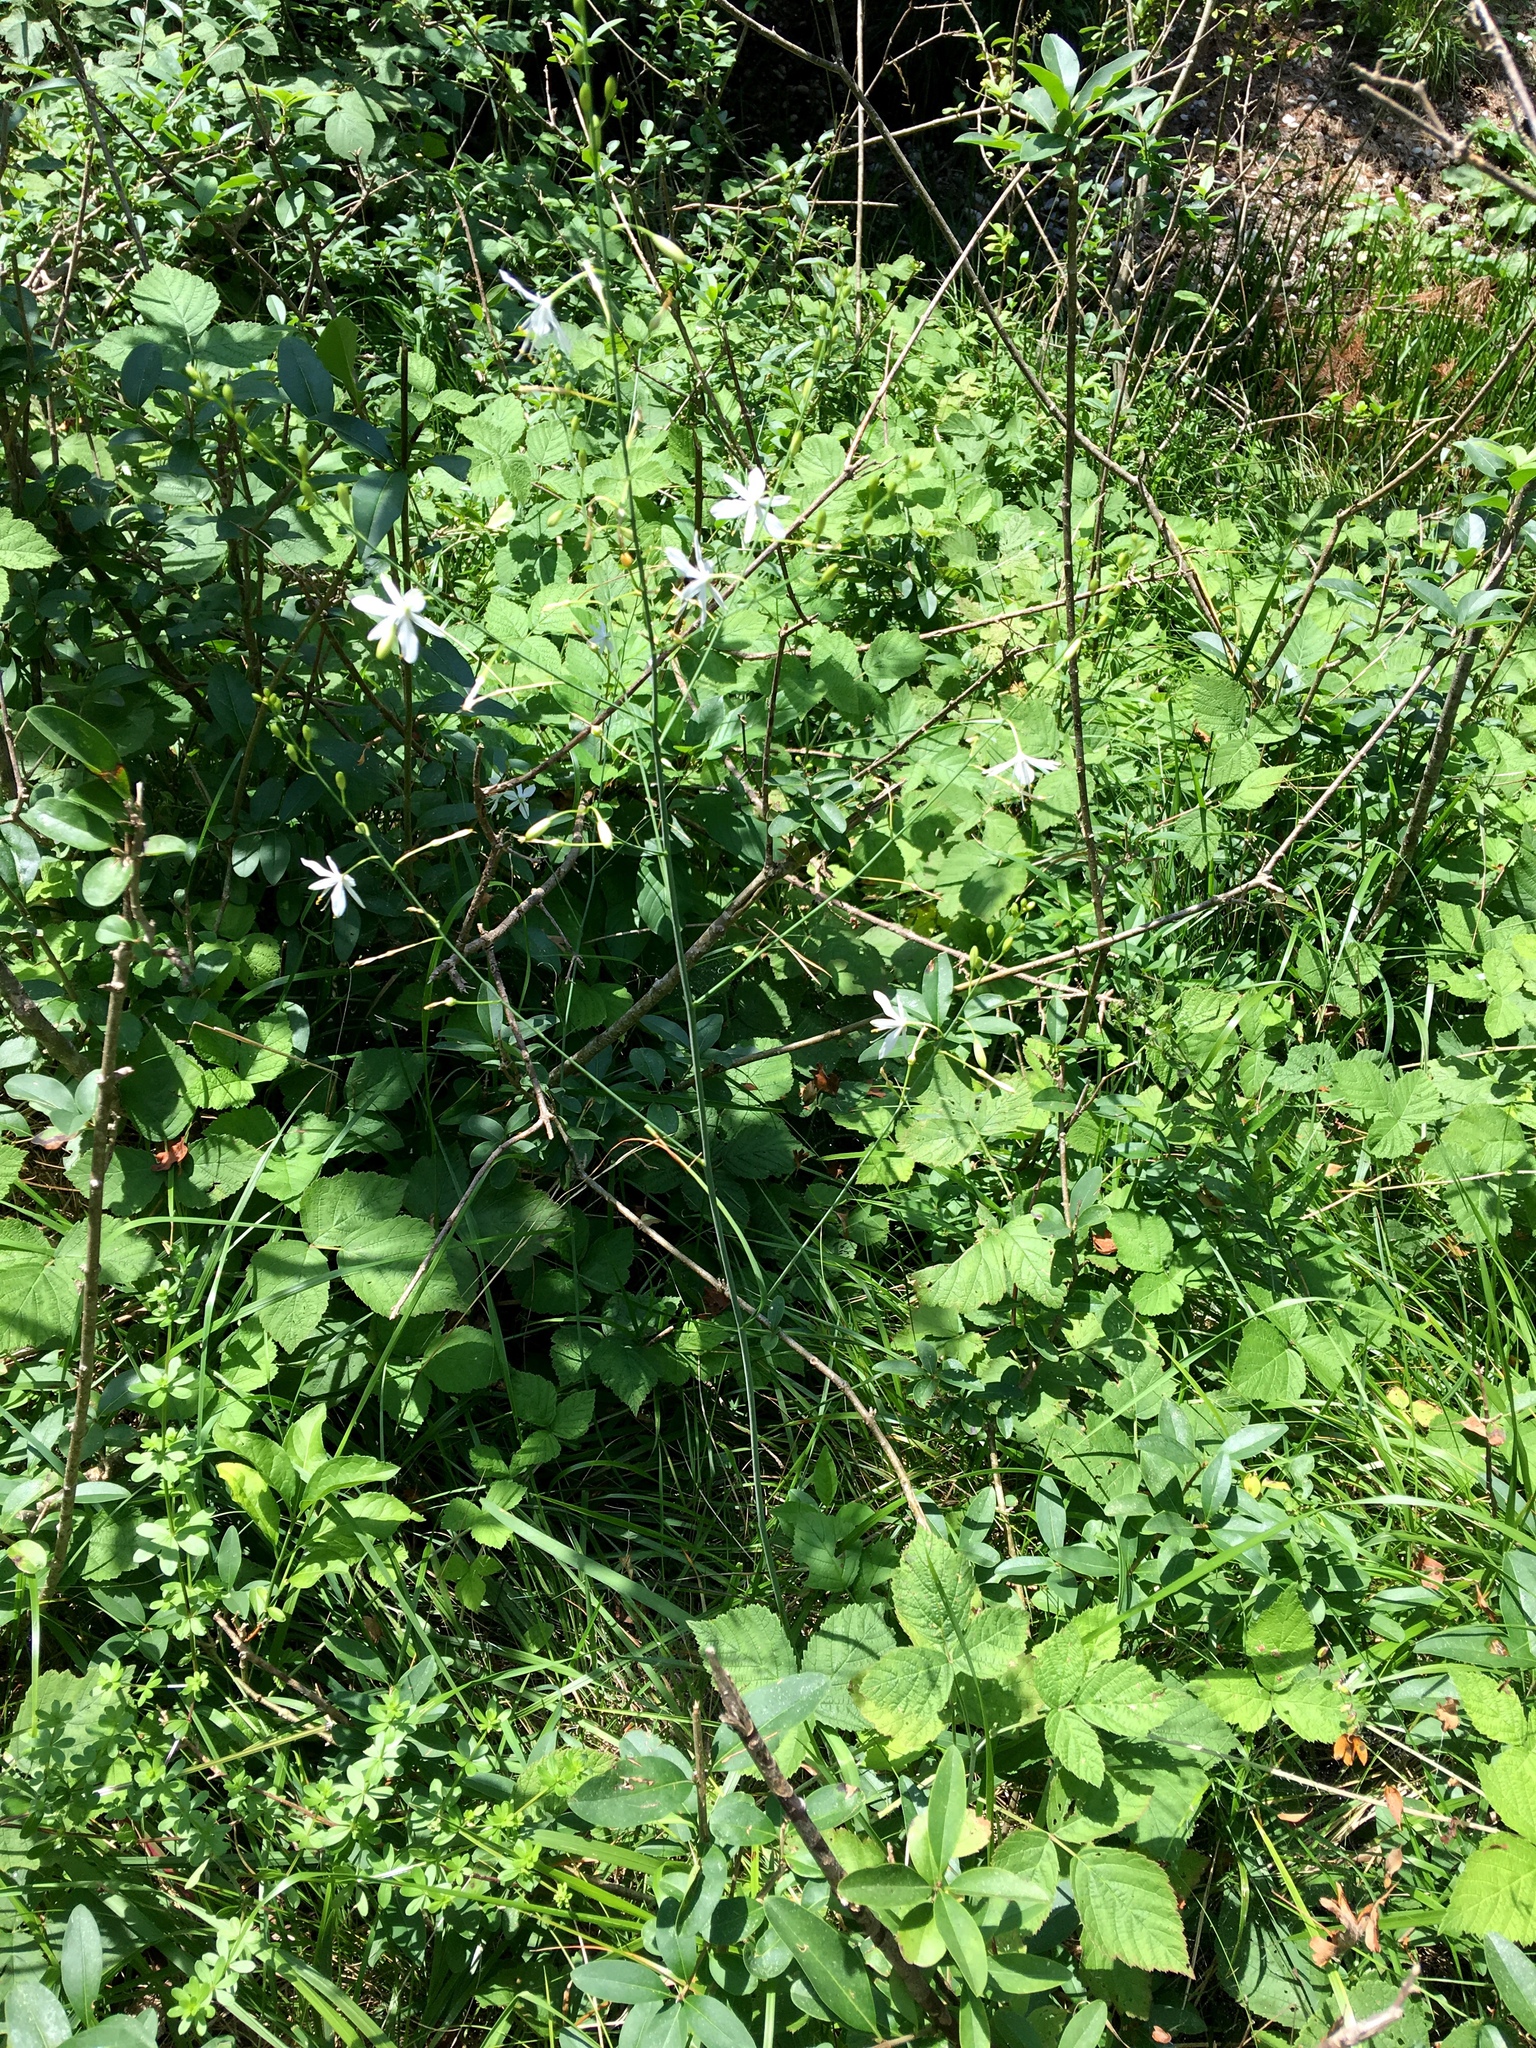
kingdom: Plantae
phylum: Tracheophyta
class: Liliopsida
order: Asparagales
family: Asparagaceae
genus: Anthericum
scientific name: Anthericum ramosum
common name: Branched st. bernard's-lily
